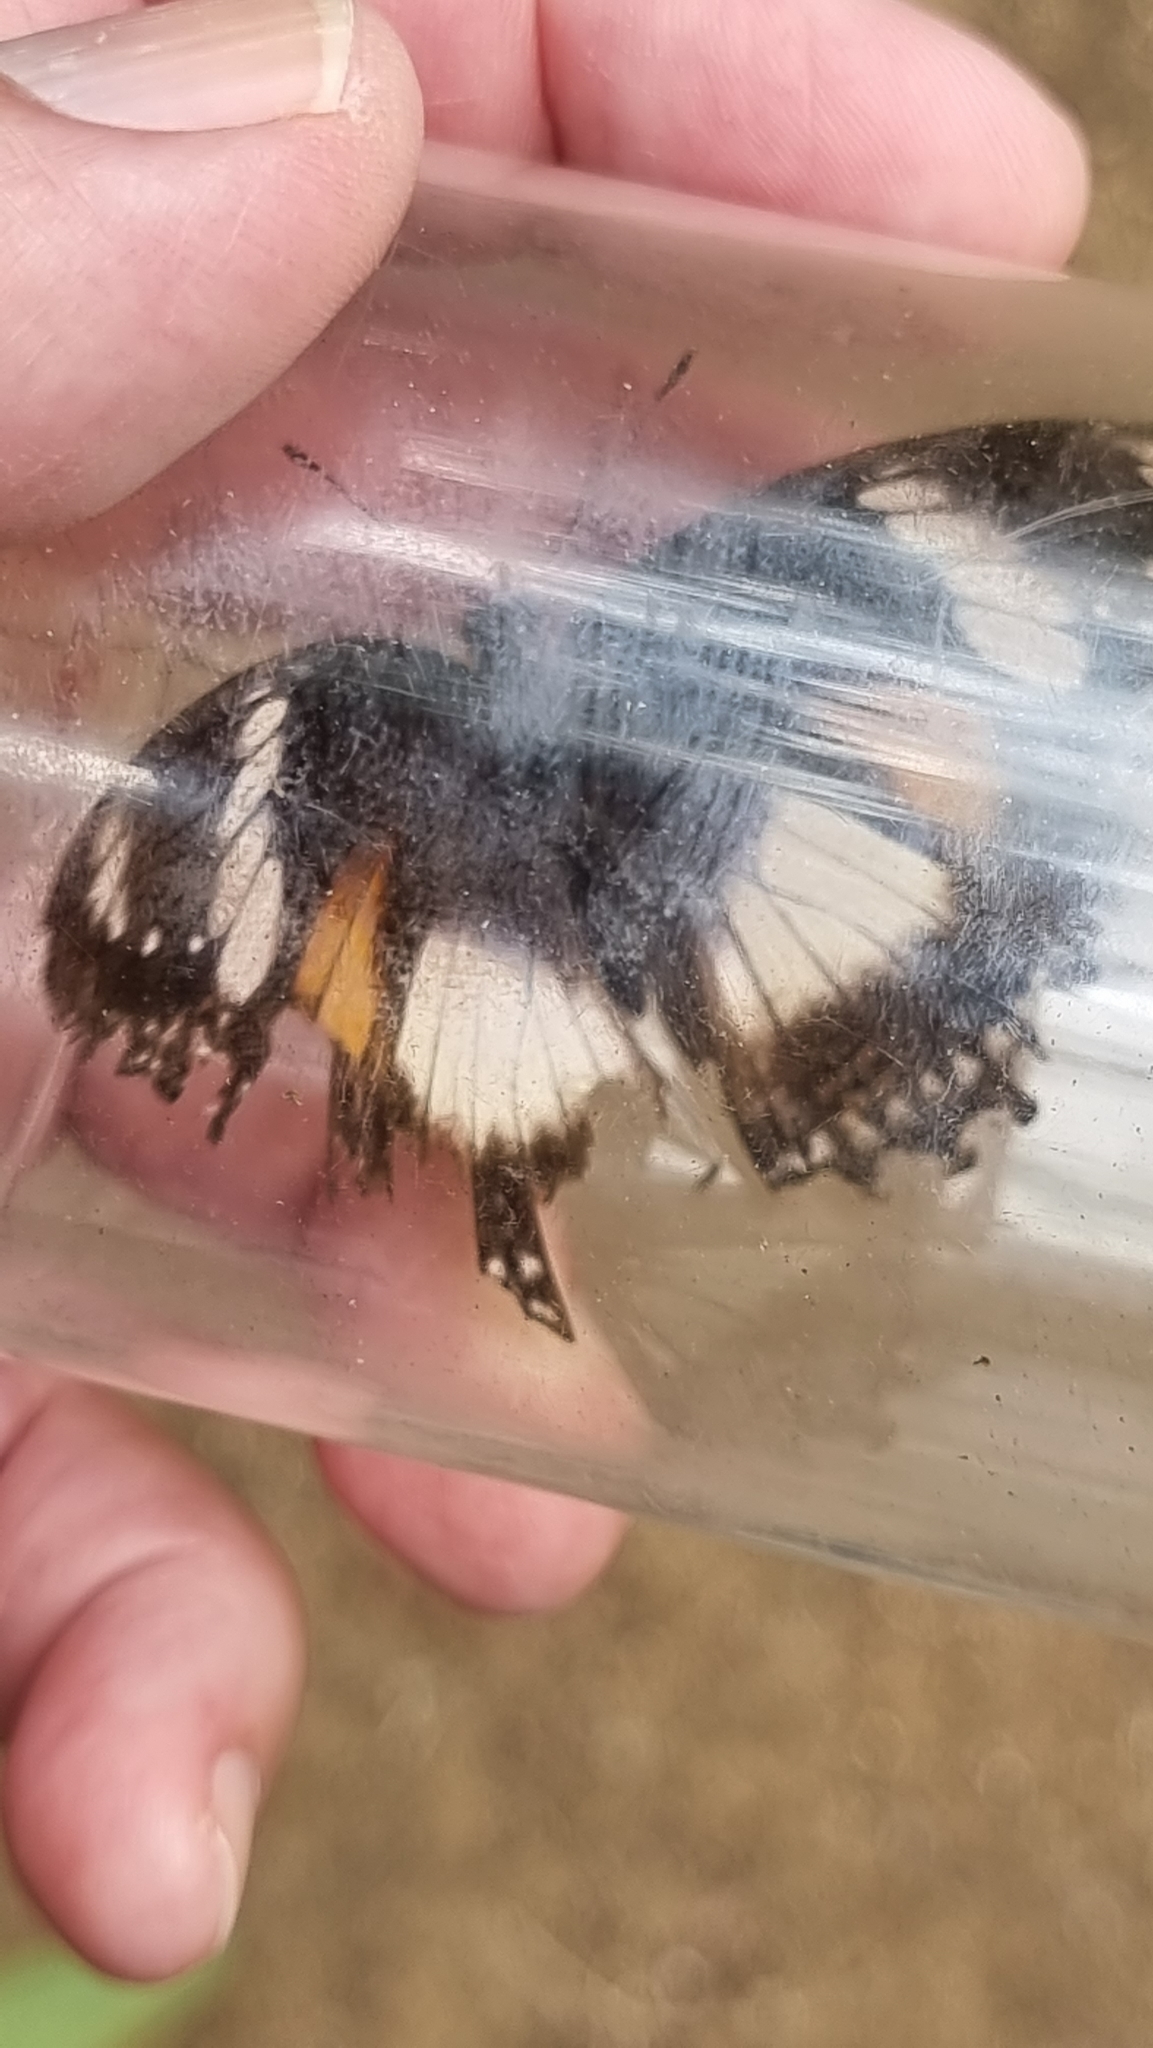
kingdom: Animalia
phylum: Arthropoda
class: Insecta
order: Lepidoptera
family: Nymphalidae
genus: Hypolimnas
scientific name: Hypolimnas bolina
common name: Great eggfly
